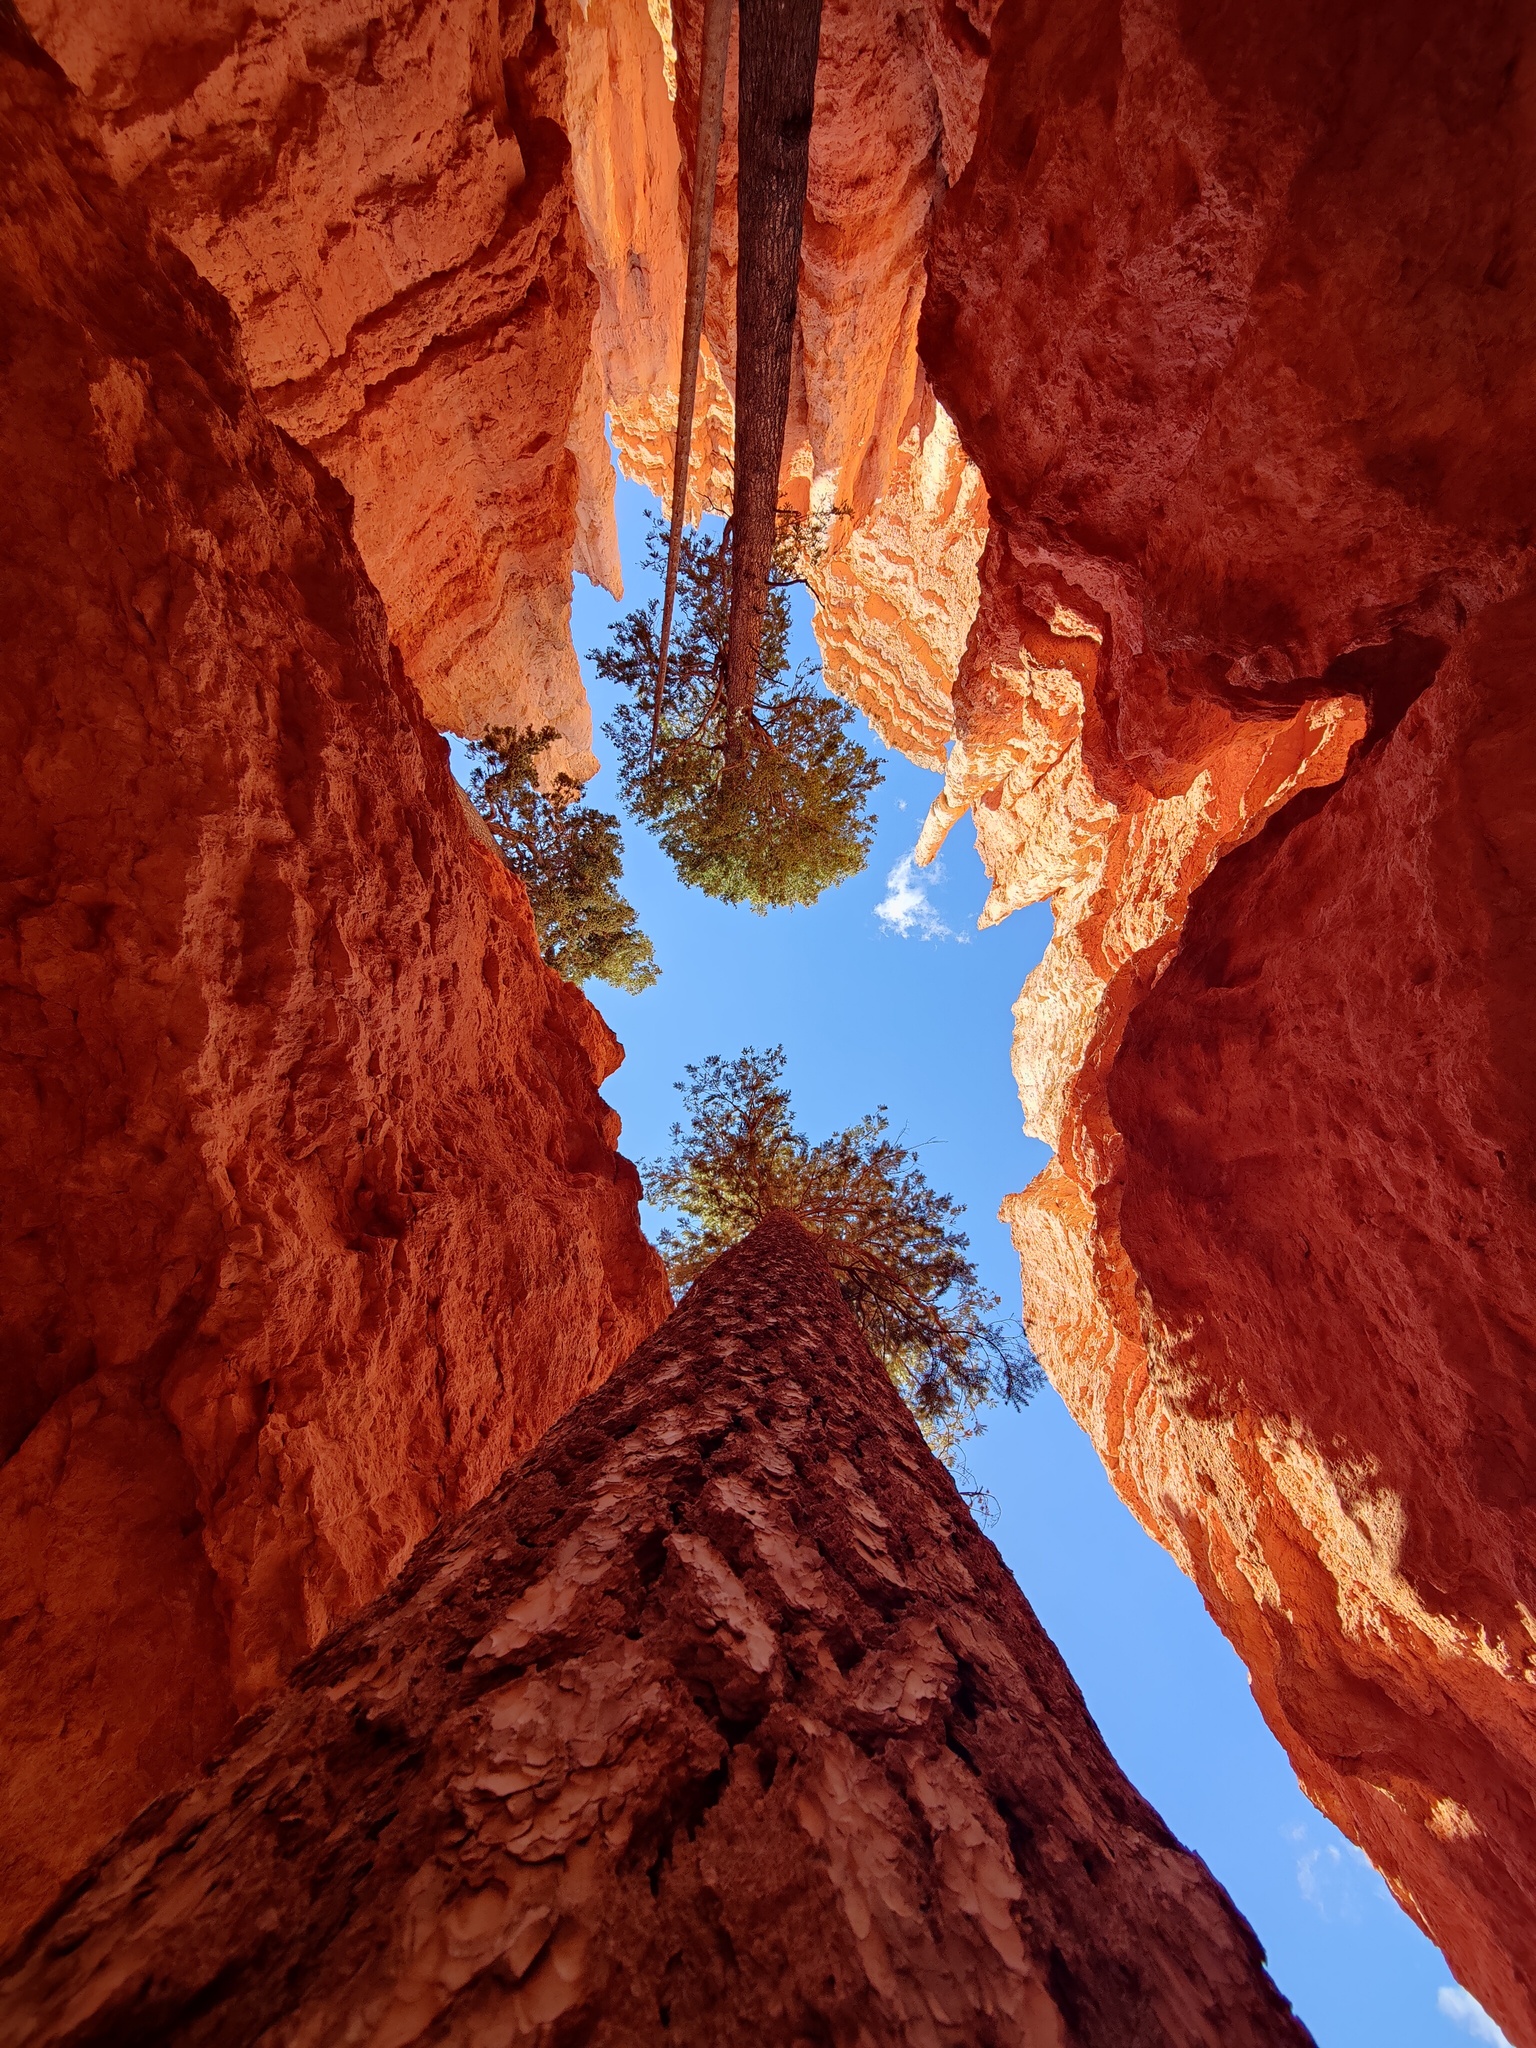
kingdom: Plantae
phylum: Tracheophyta
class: Pinopsida
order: Pinales
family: Pinaceae
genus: Pseudotsuga
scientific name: Pseudotsuga menziesii
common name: Douglas fir
